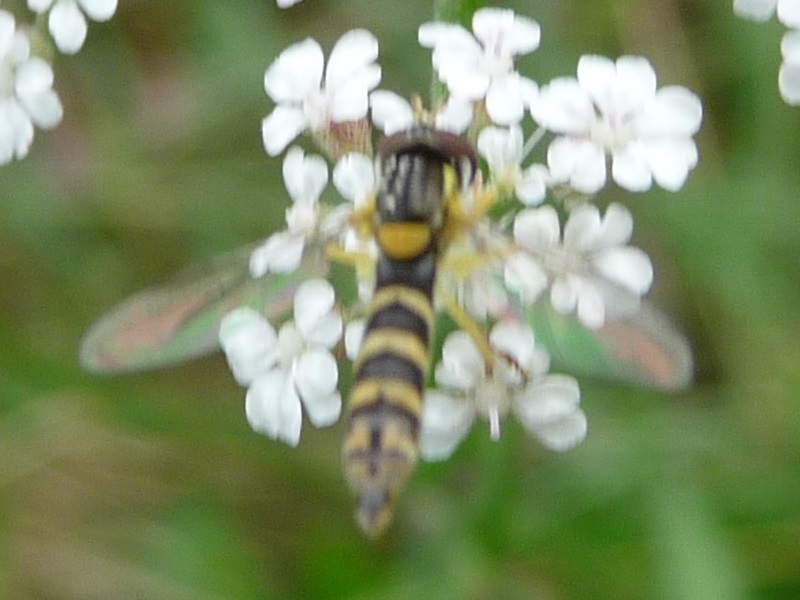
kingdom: Animalia
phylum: Arthropoda
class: Insecta
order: Diptera
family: Syrphidae
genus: Sphaerophoria
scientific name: Sphaerophoria
